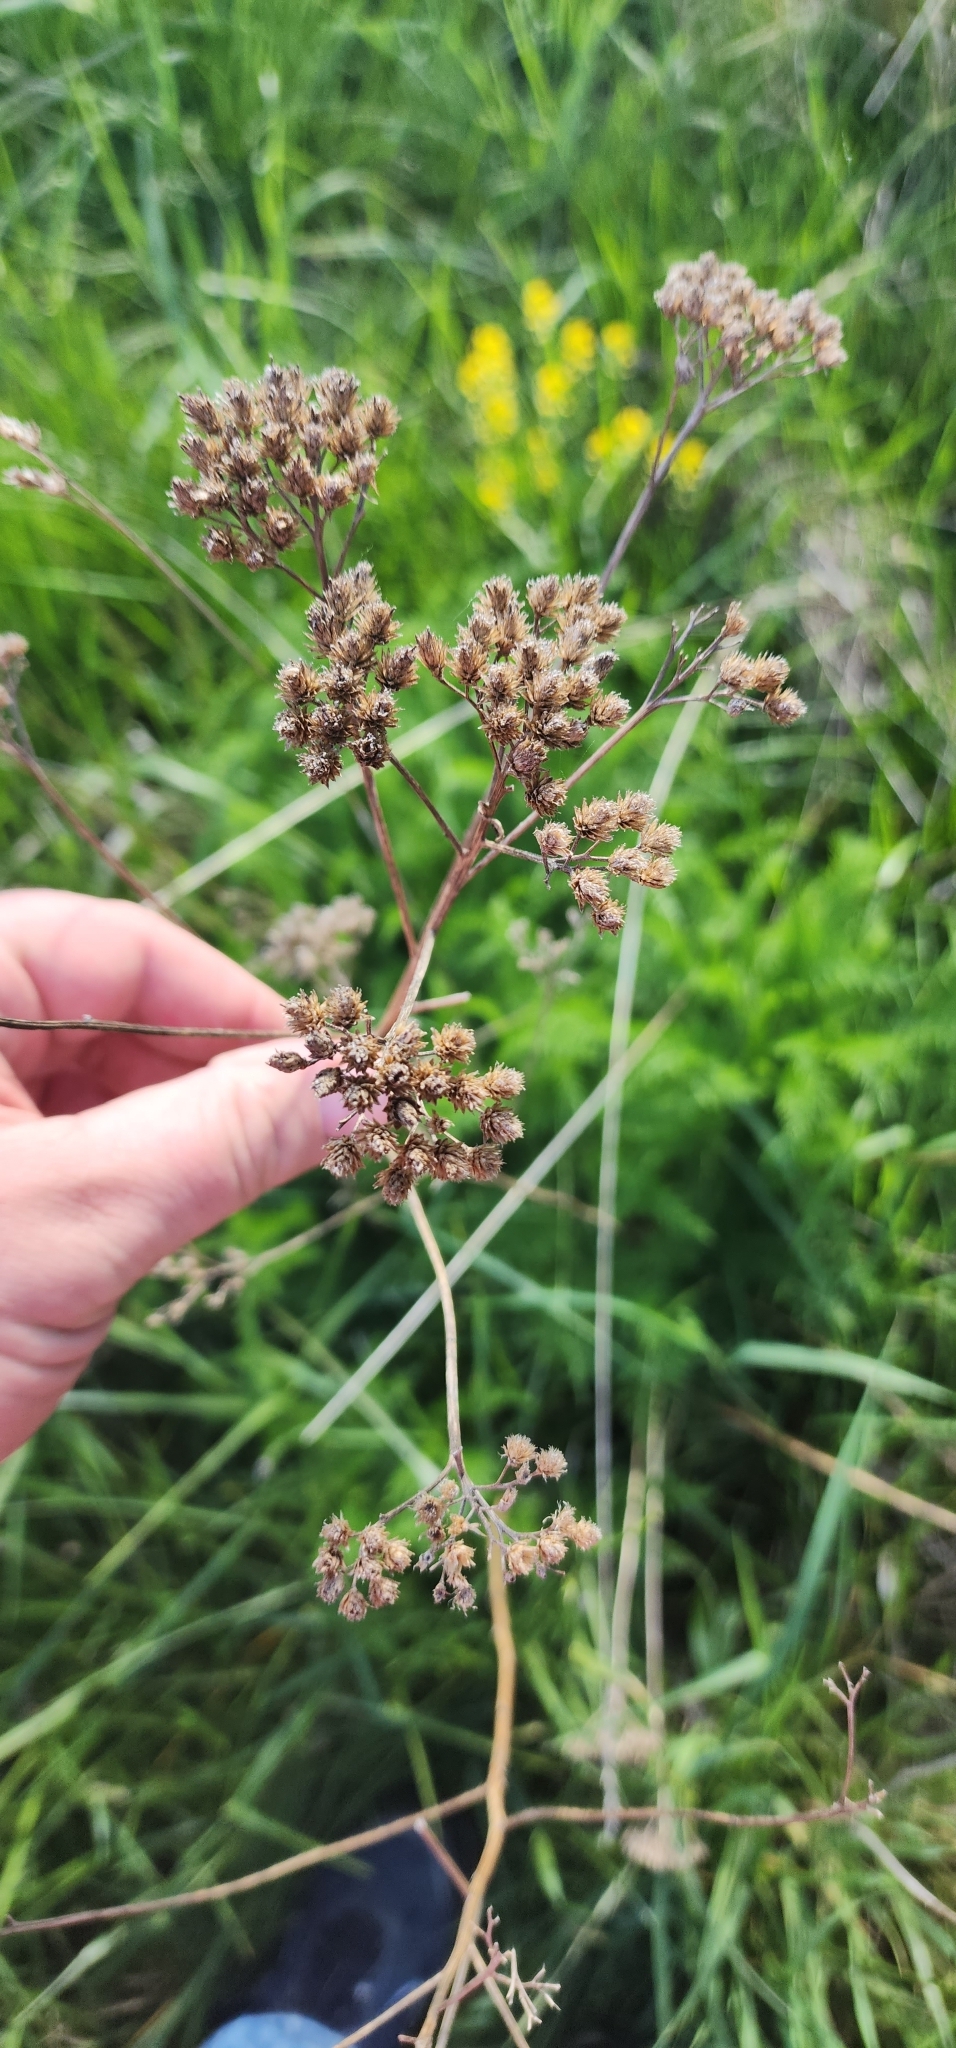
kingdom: Plantae
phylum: Tracheophyta
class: Magnoliopsida
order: Asterales
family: Asteraceae
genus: Achillea
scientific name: Achillea millefolium
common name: Yarrow
